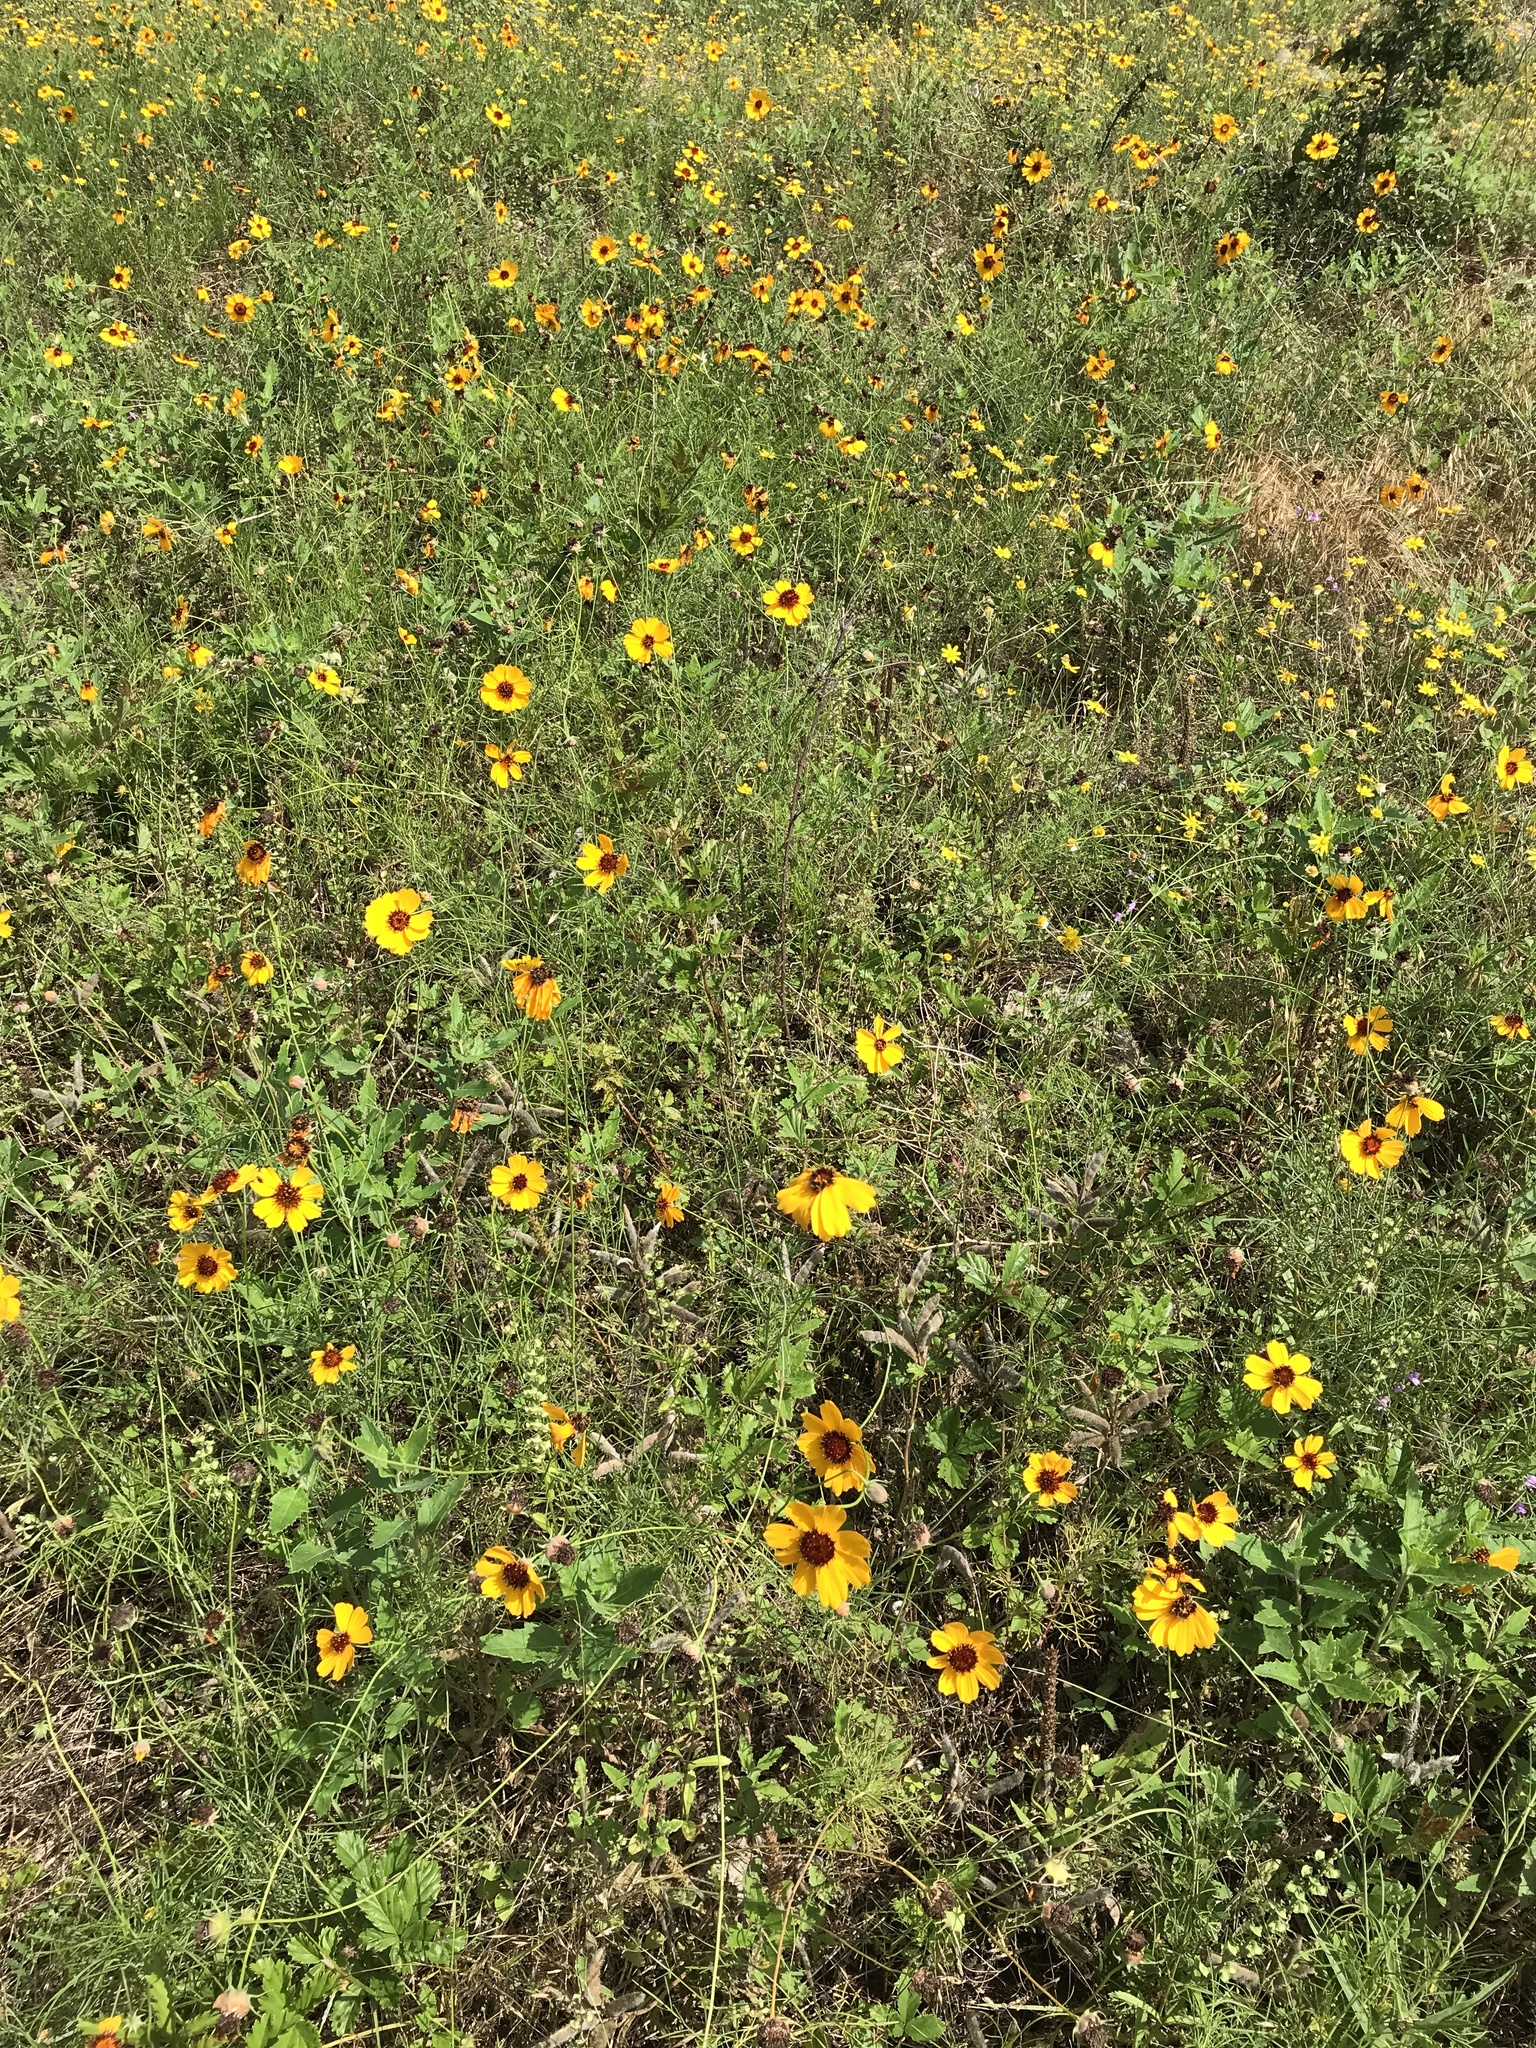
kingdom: Plantae
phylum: Tracheophyta
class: Magnoliopsida
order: Asterales
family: Asteraceae
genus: Thelesperma
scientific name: Thelesperma filifolium
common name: Stiff greenthread
